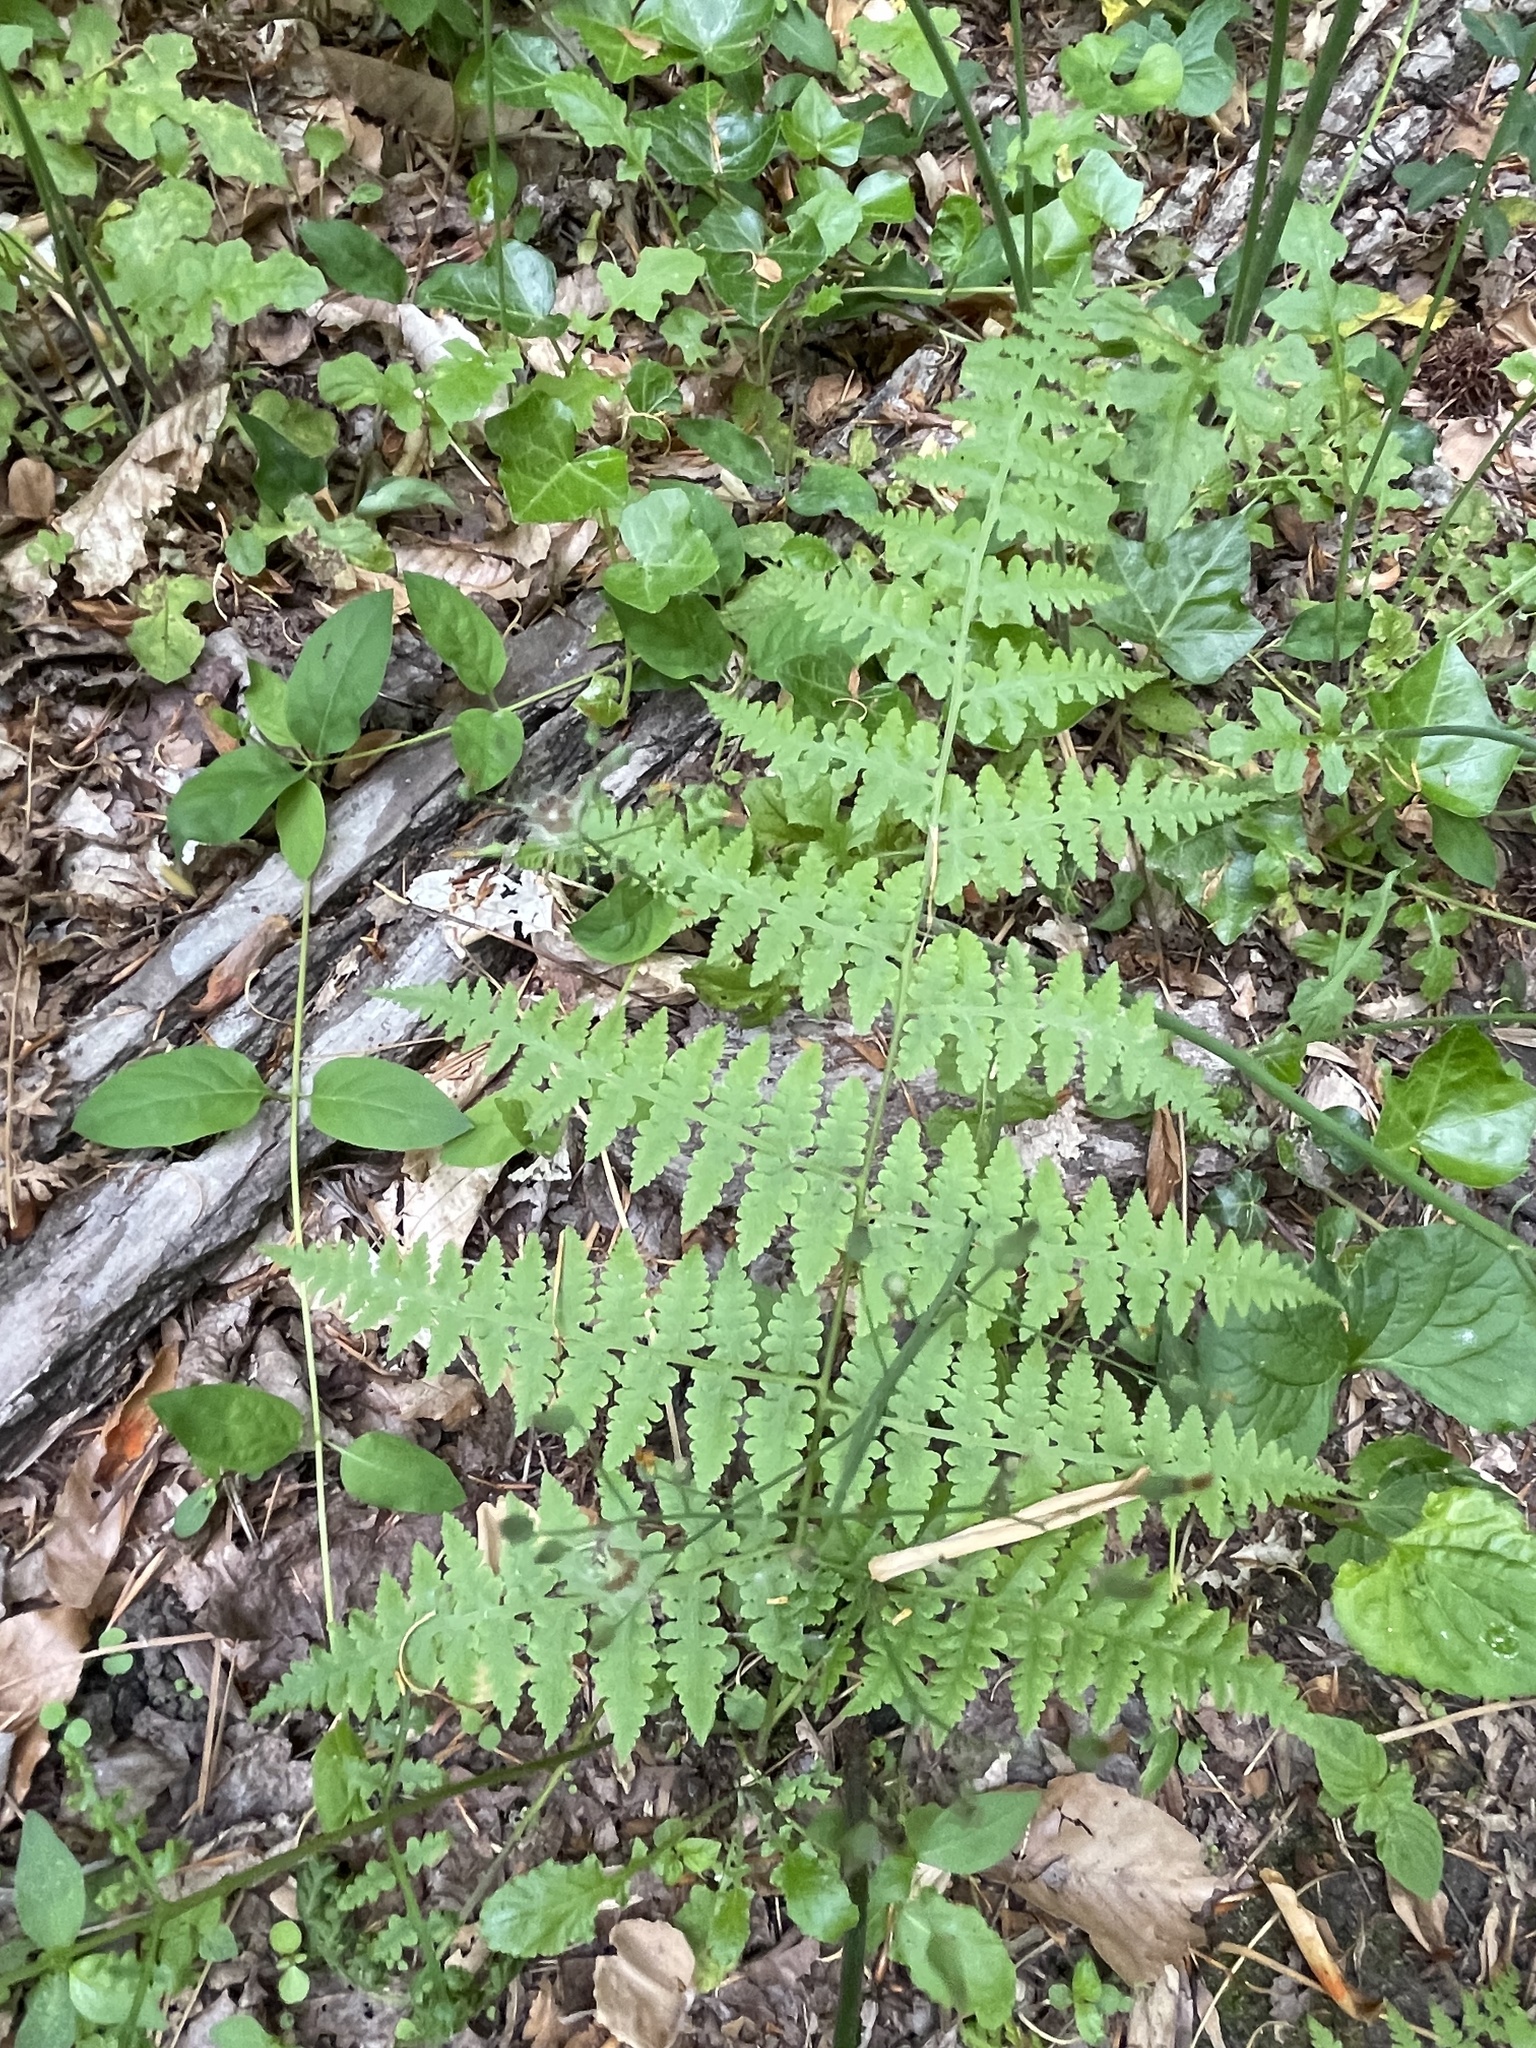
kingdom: Plantae
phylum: Tracheophyta
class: Polypodiopsida
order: Polypodiales
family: Thelypteridaceae
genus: Macrothelypteris
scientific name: Macrothelypteris torresiana
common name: Swordfern
